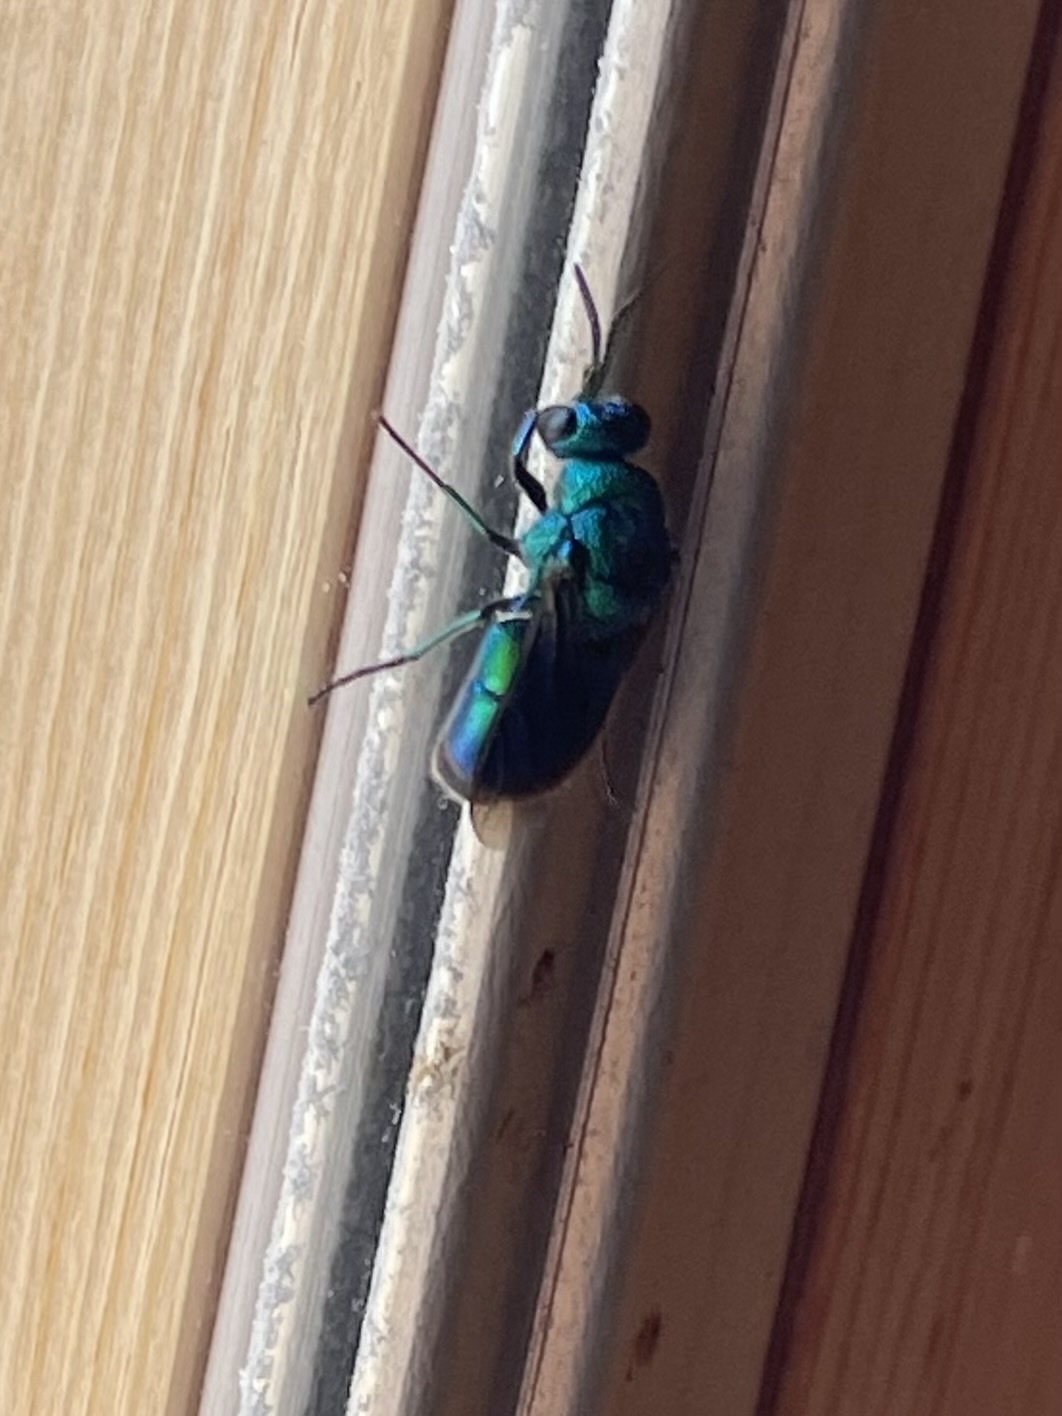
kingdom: Animalia
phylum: Arthropoda
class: Insecta
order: Hymenoptera
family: Chrysididae
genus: Chrysis
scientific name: Chrysis angolensis
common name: Cuckoo wasp
